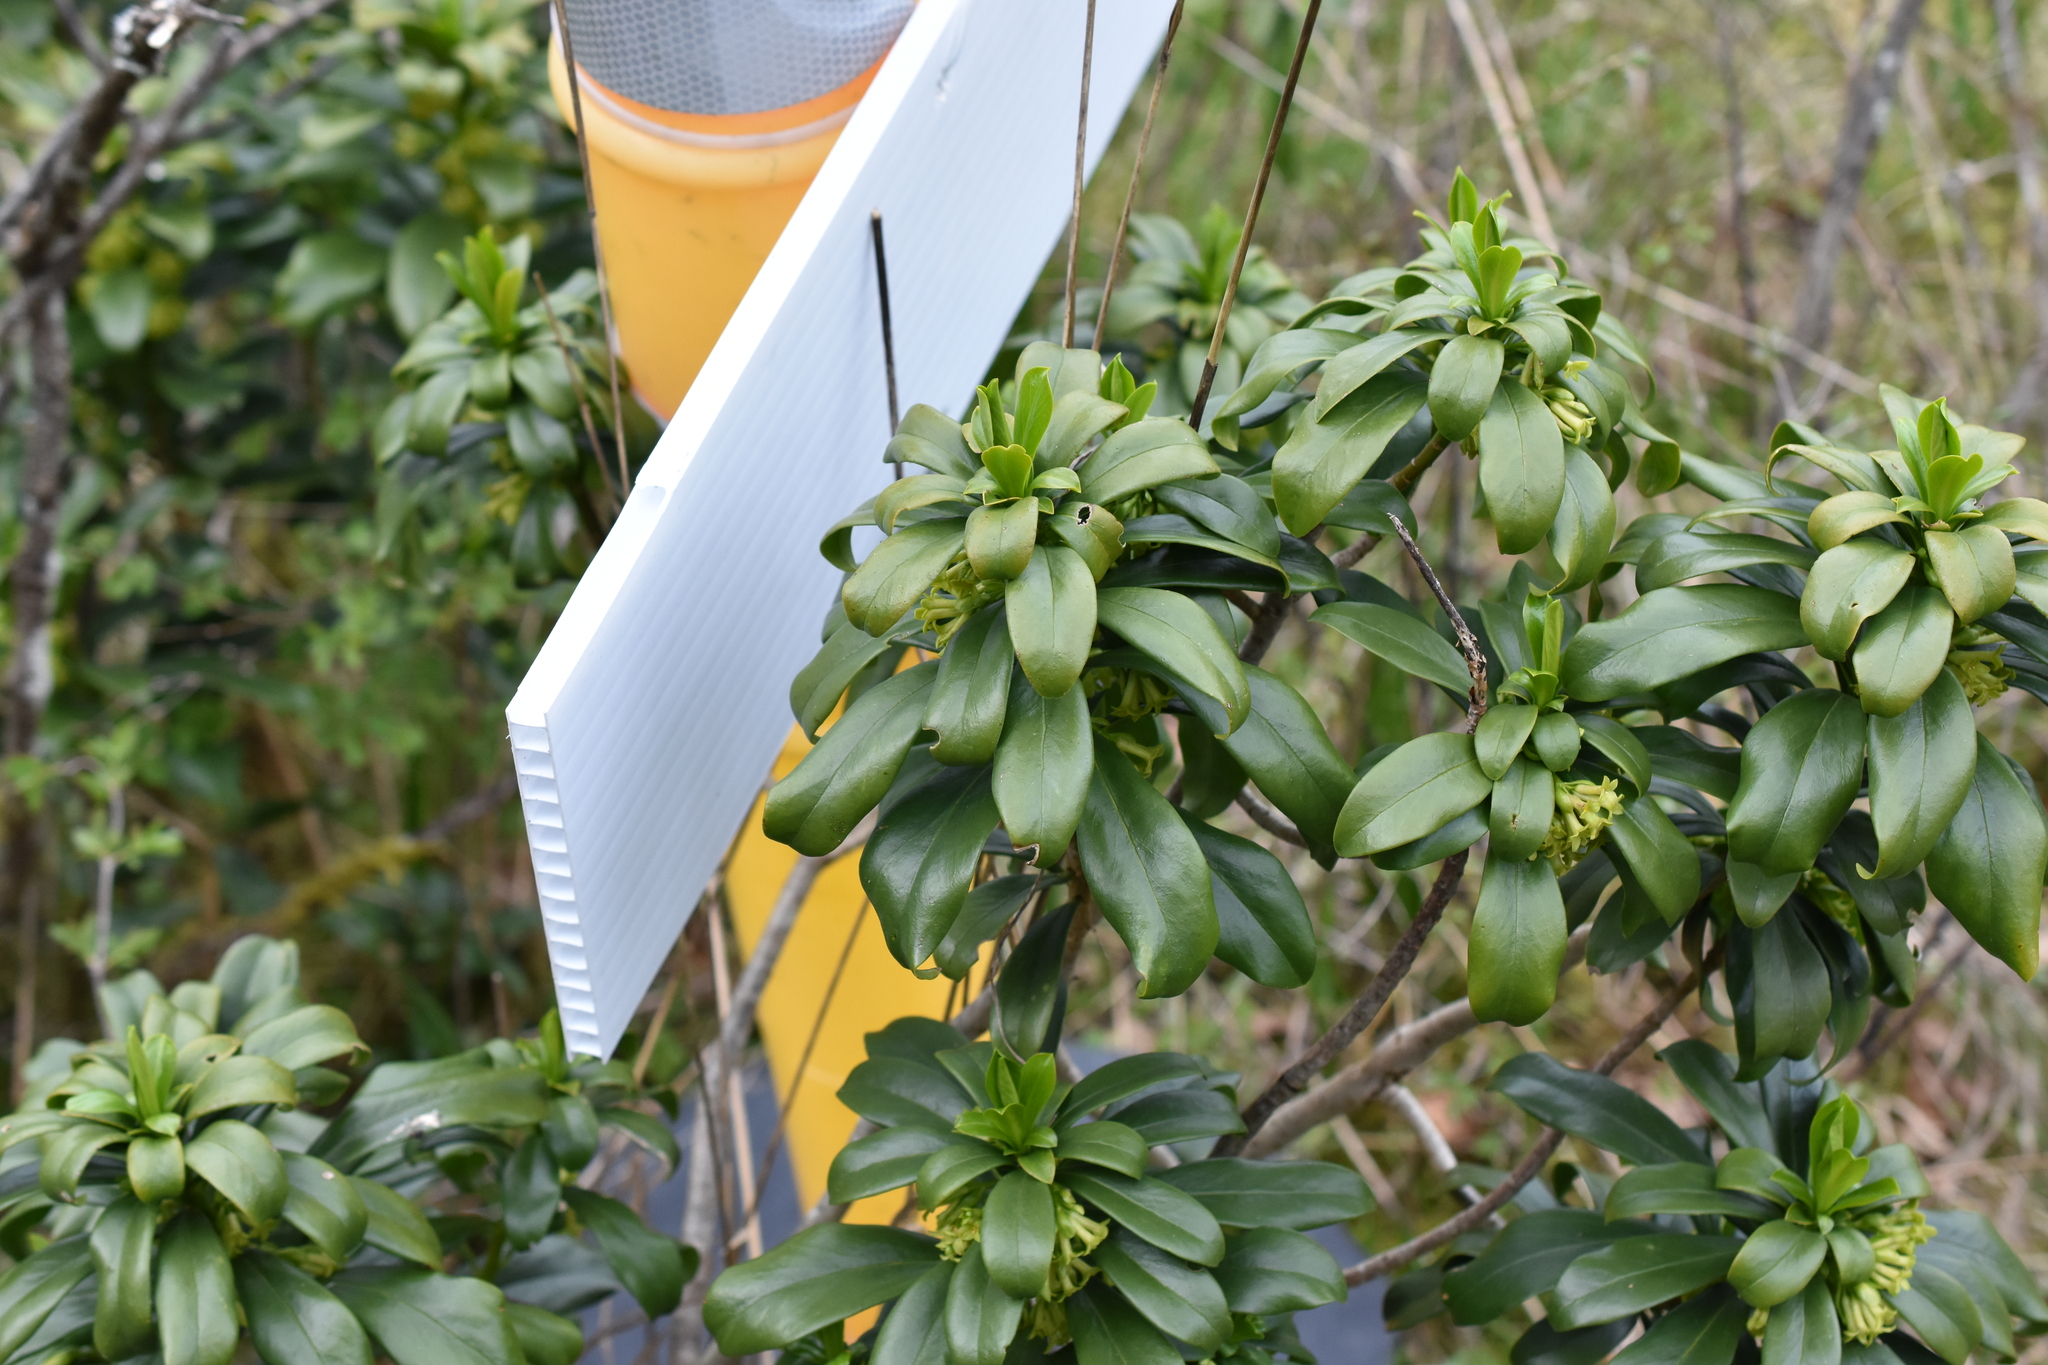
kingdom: Plantae
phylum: Tracheophyta
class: Magnoliopsida
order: Malvales
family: Thymelaeaceae
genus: Daphne
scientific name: Daphne laureola
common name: Spurge-laurel
